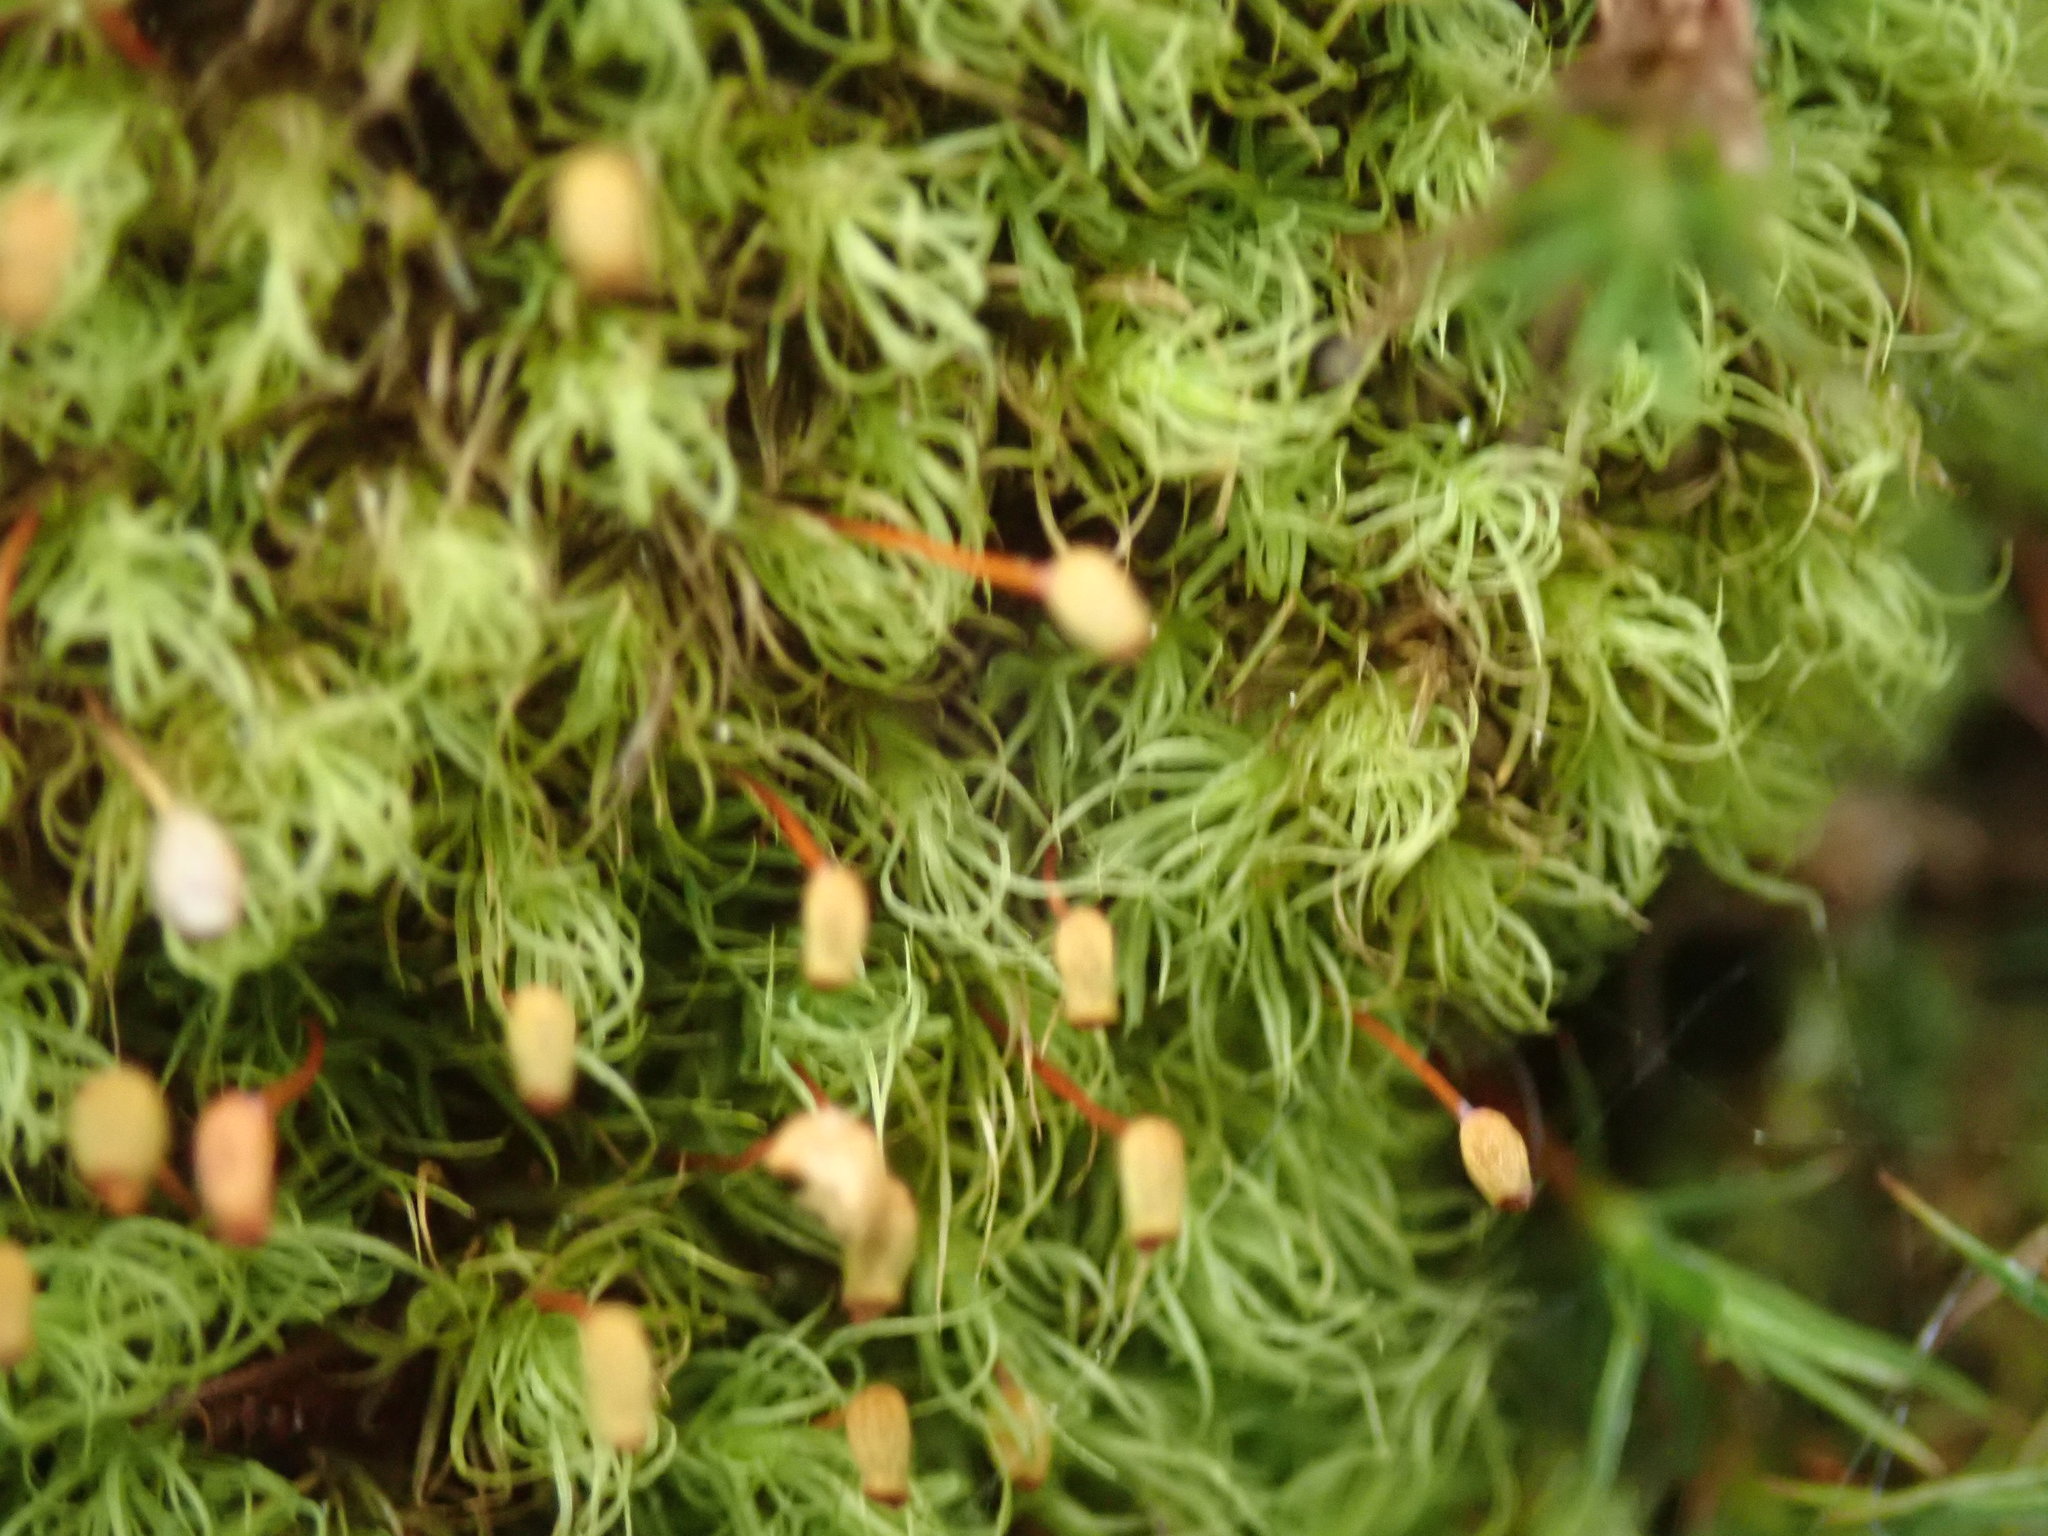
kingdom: Plantae
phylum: Bryophyta
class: Bryopsida
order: Bartramiales
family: Bartramiaceae
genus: Bartramia
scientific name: Bartramia ithyphylla
